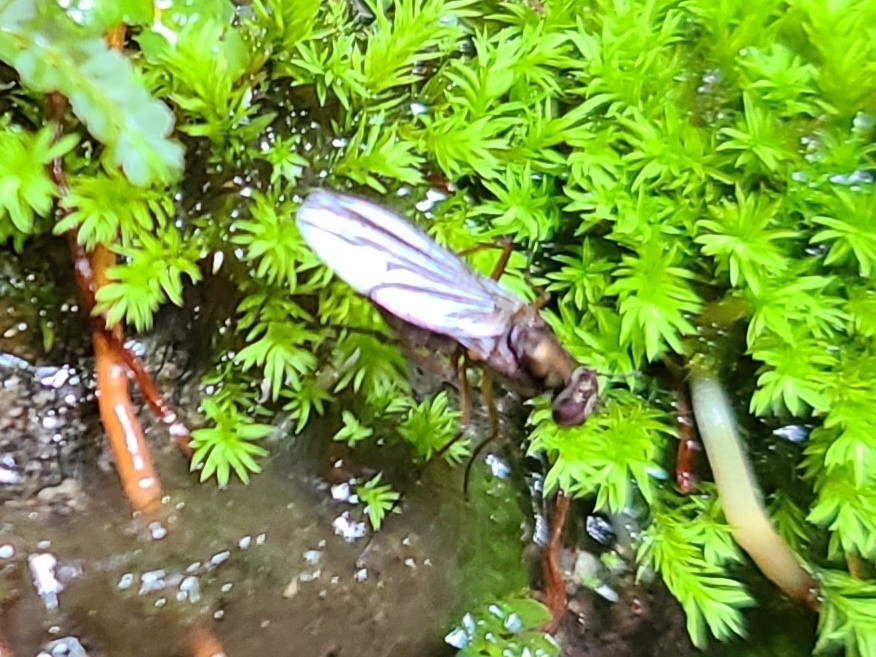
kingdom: Animalia
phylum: Arthropoda
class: Insecta
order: Diptera
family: Dolichopodidae
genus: Diostracus
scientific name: Diostracus prasinus
